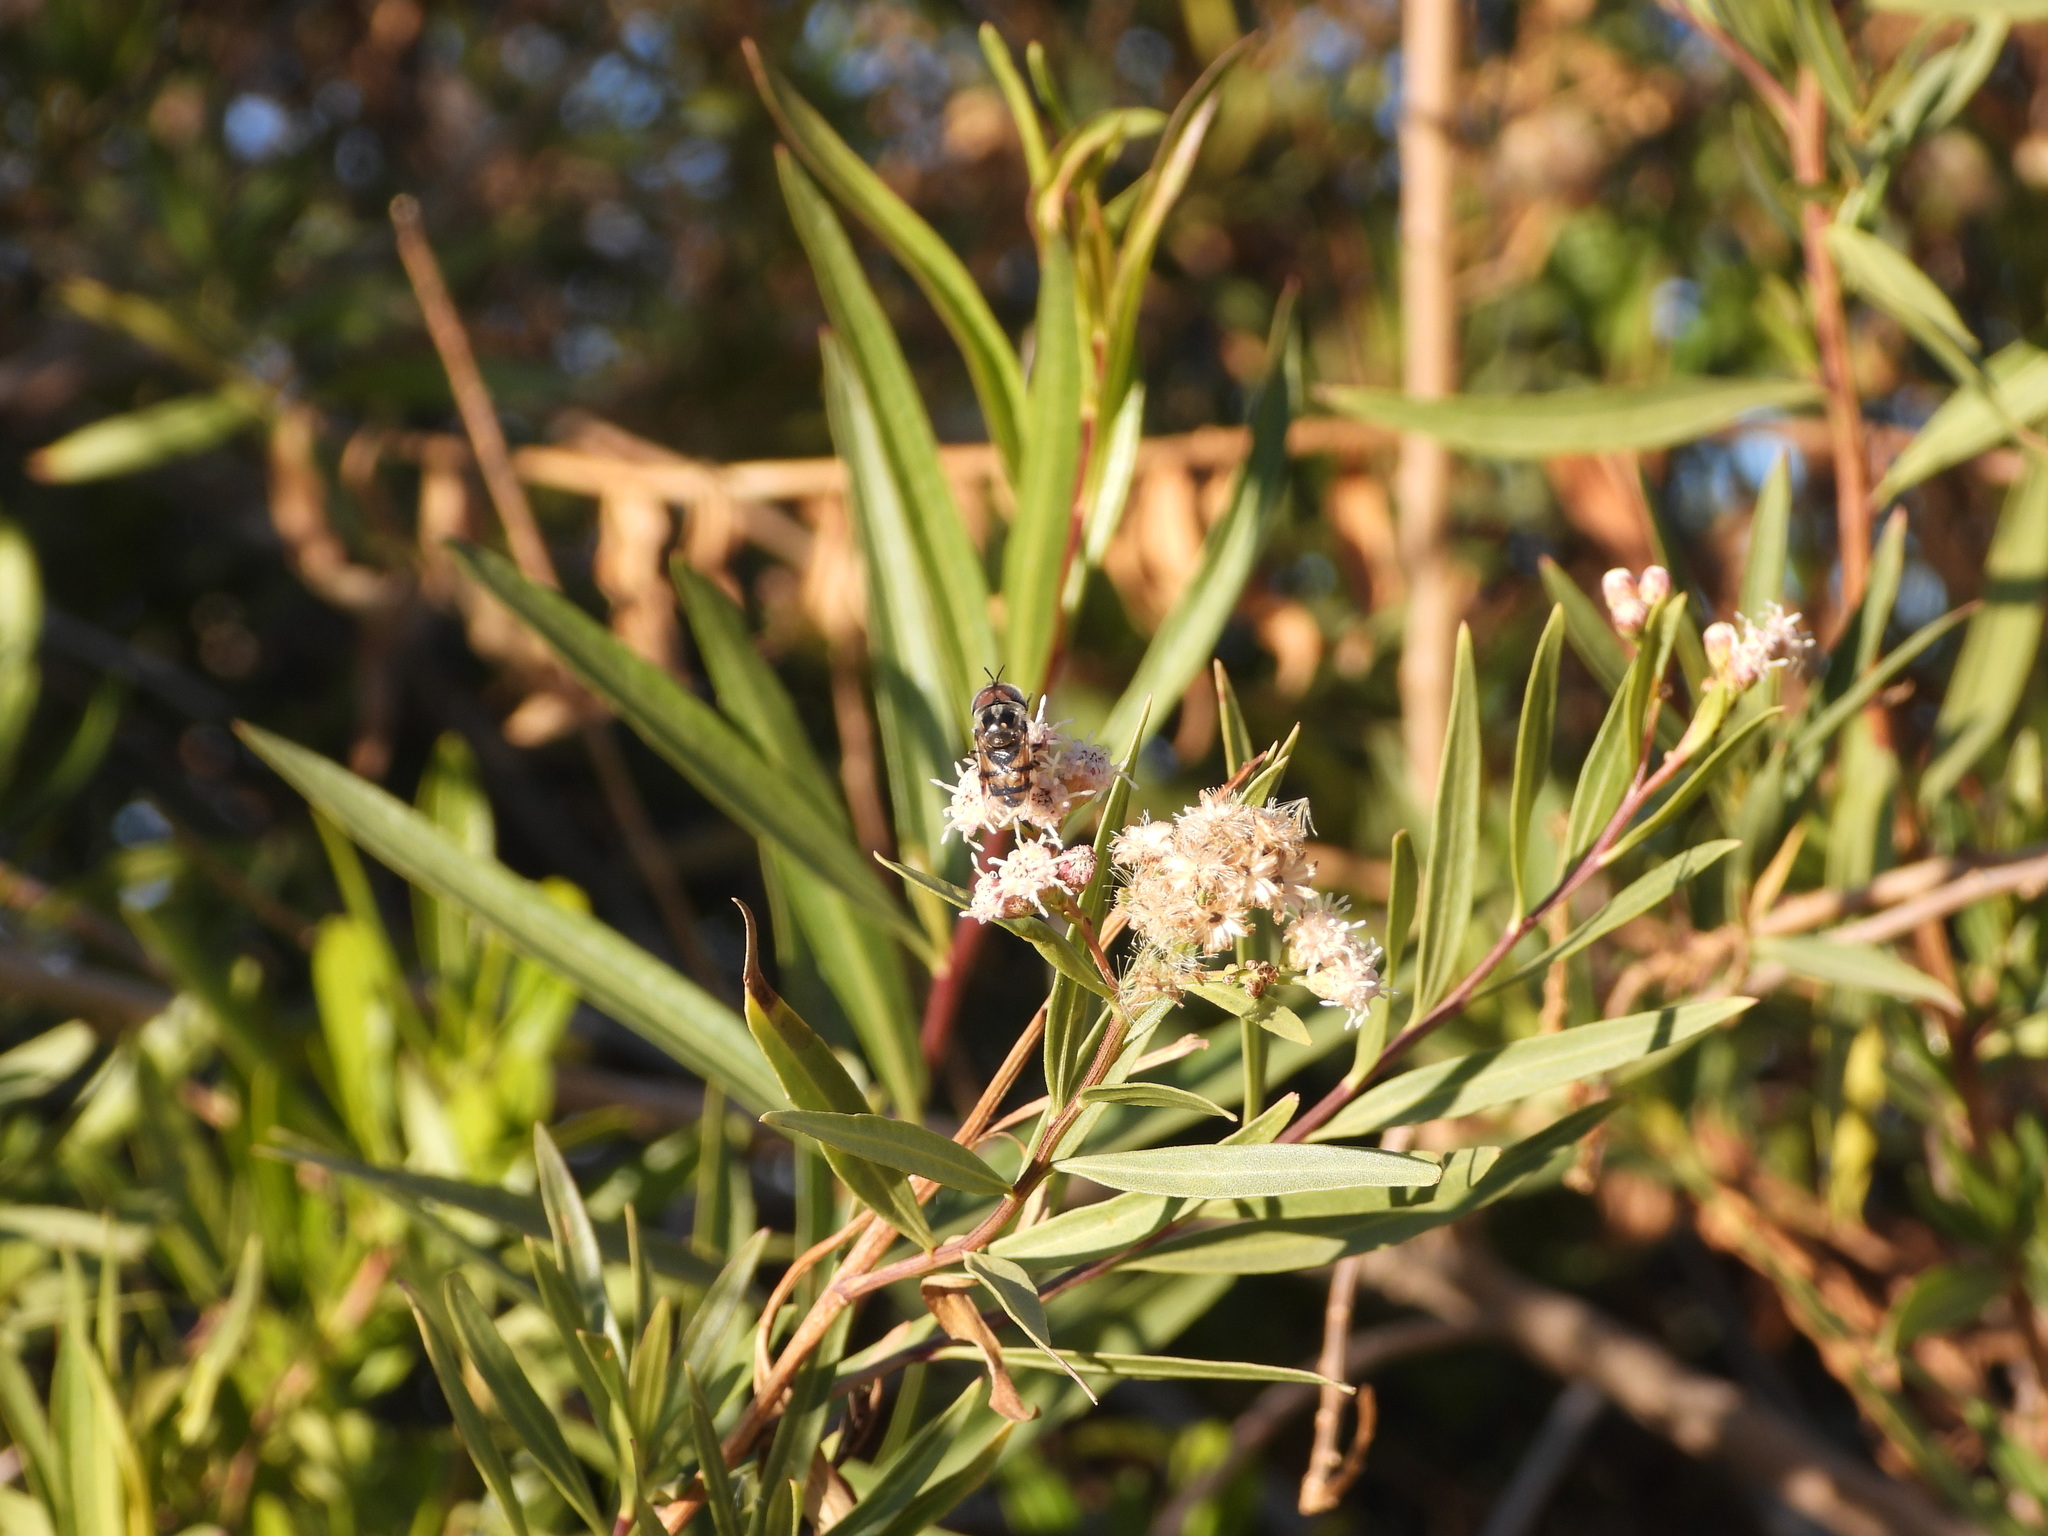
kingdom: Animalia
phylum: Arthropoda
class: Insecta
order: Diptera
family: Syrphidae
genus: Copestylum
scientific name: Copestylum fornax
